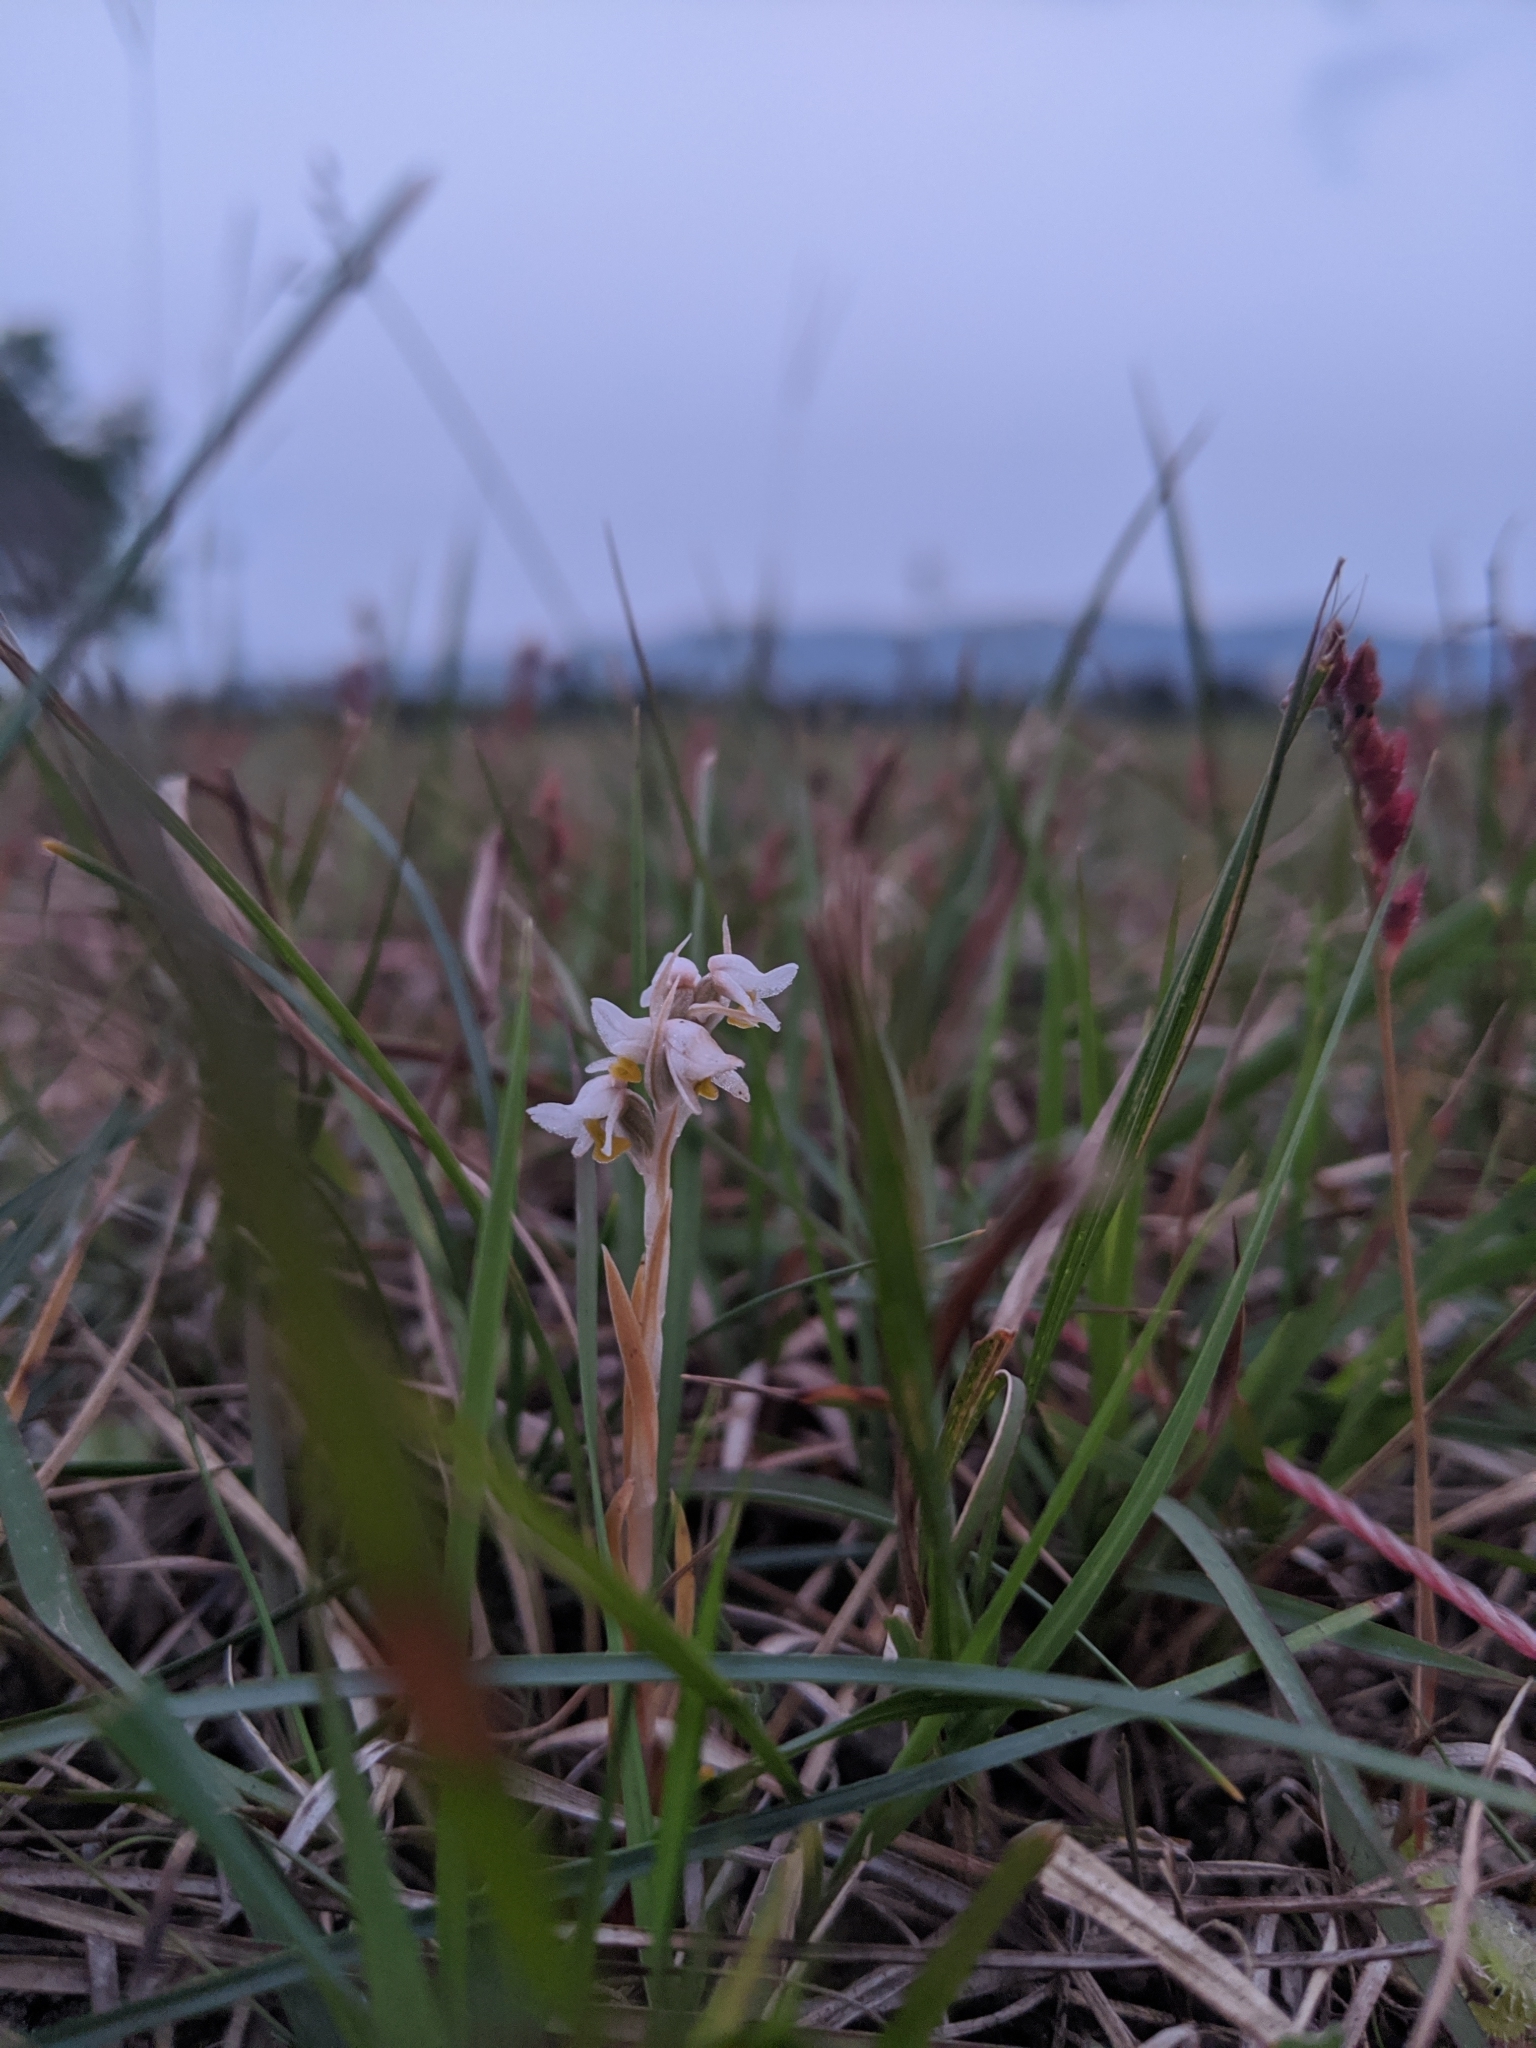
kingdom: Plantae
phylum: Tracheophyta
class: Liliopsida
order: Asparagales
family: Orchidaceae
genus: Zeuxine
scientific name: Zeuxine strateumatica
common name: Soldier's orchid
